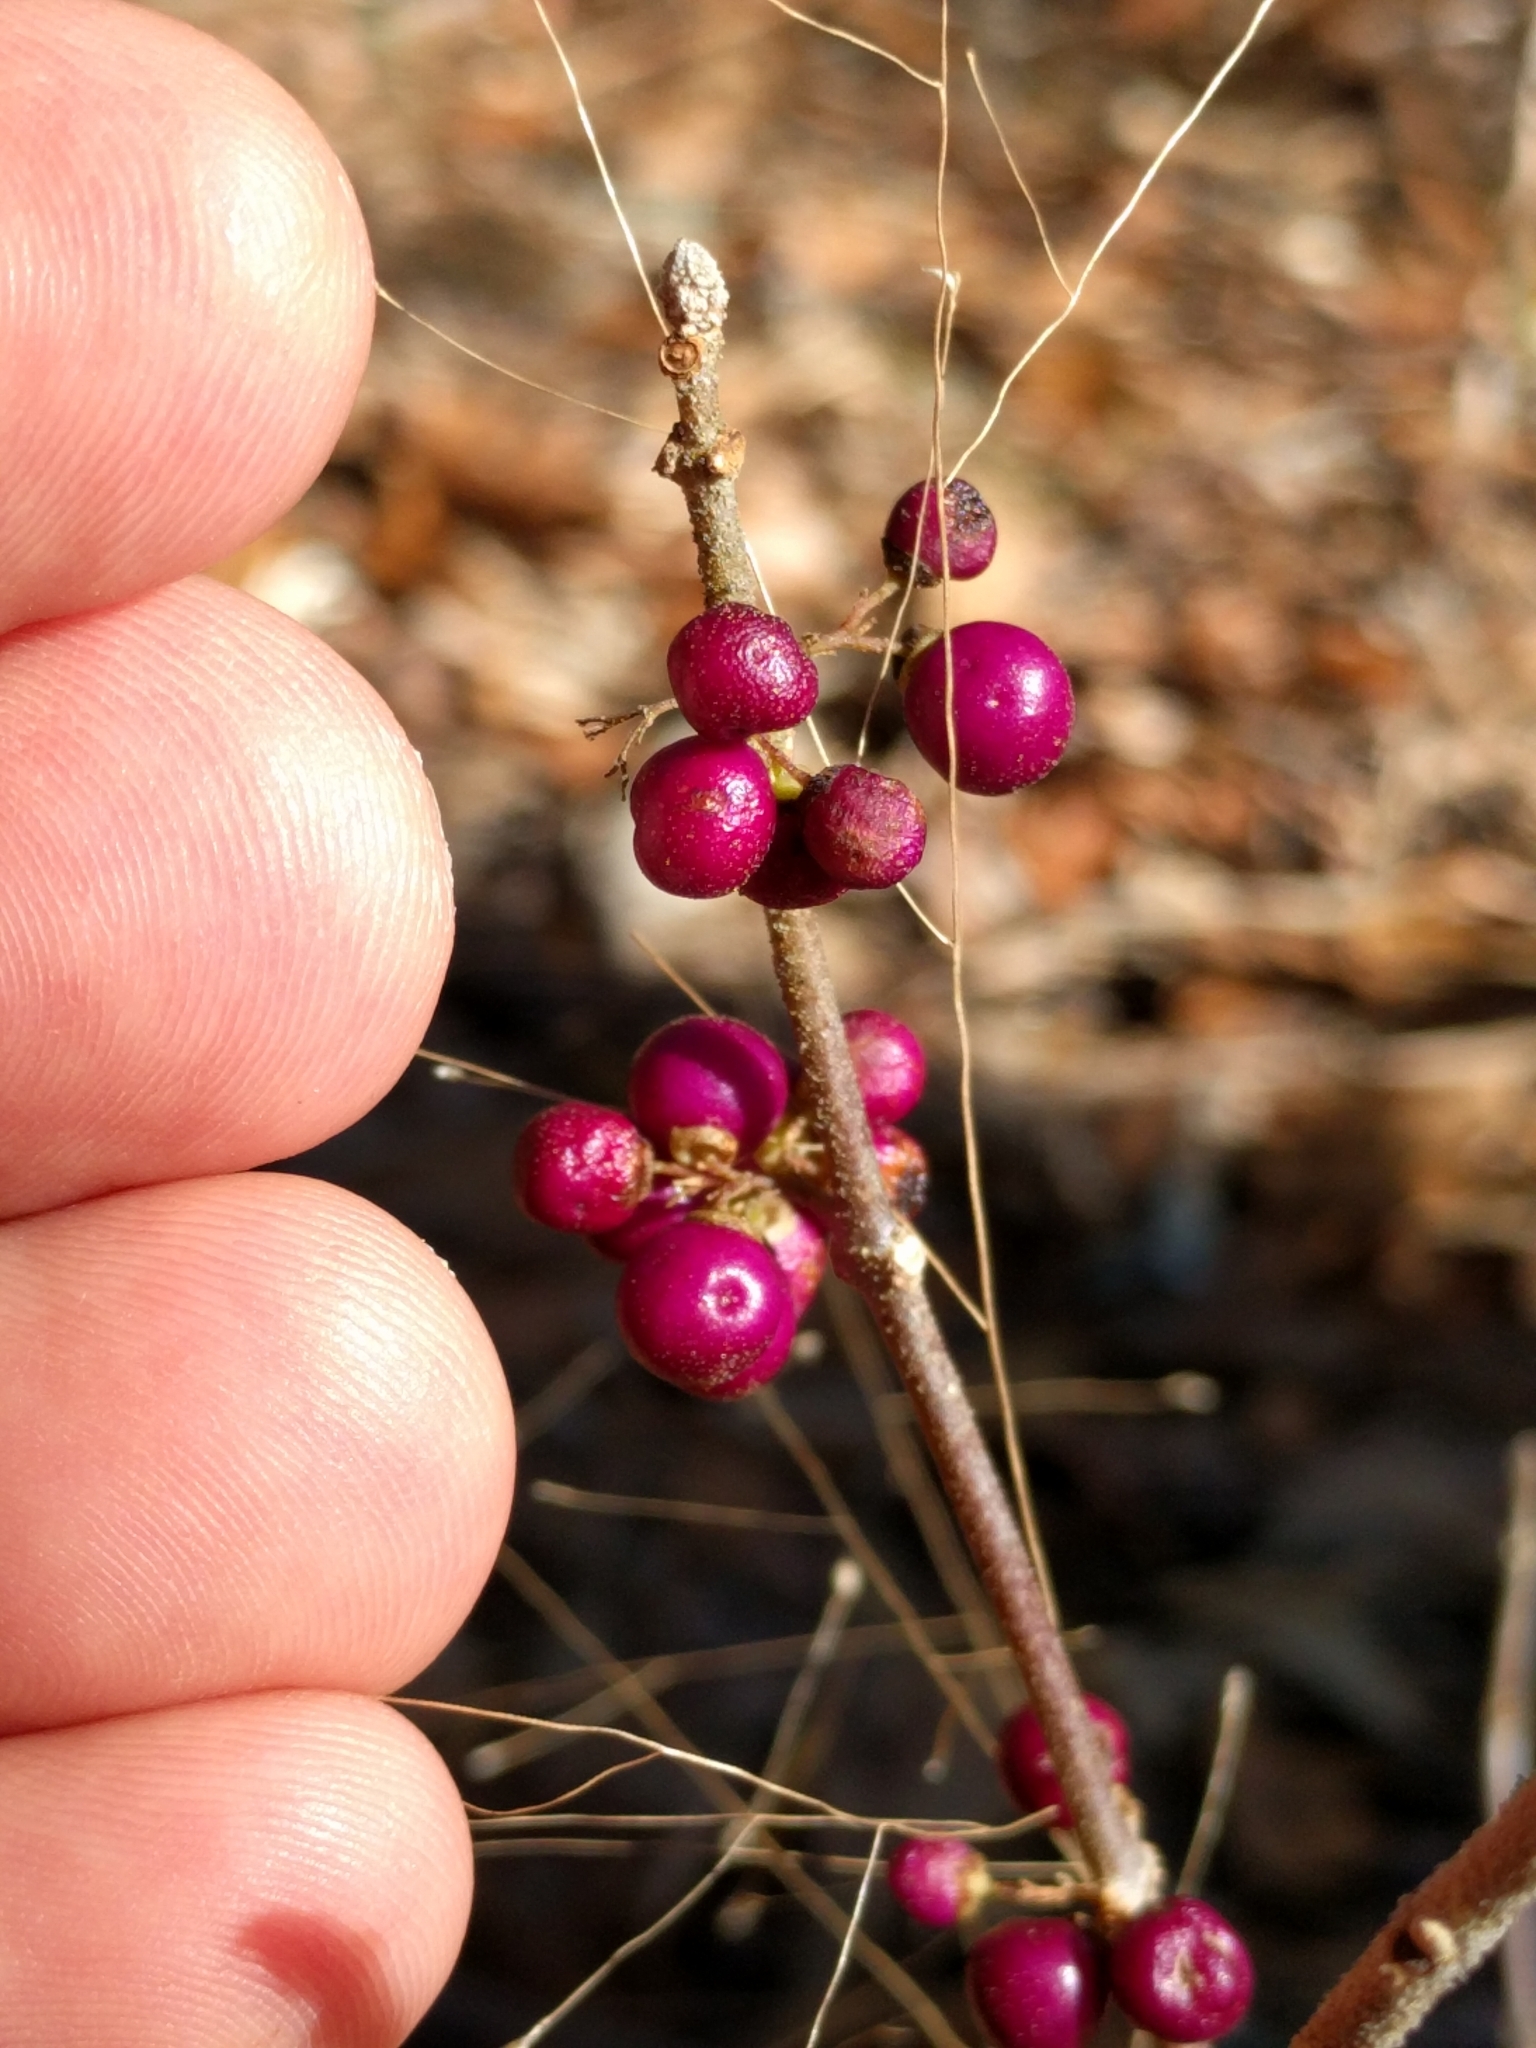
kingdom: Plantae
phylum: Tracheophyta
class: Magnoliopsida
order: Lamiales
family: Lamiaceae
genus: Callicarpa
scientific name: Callicarpa americana
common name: American beautyberry
